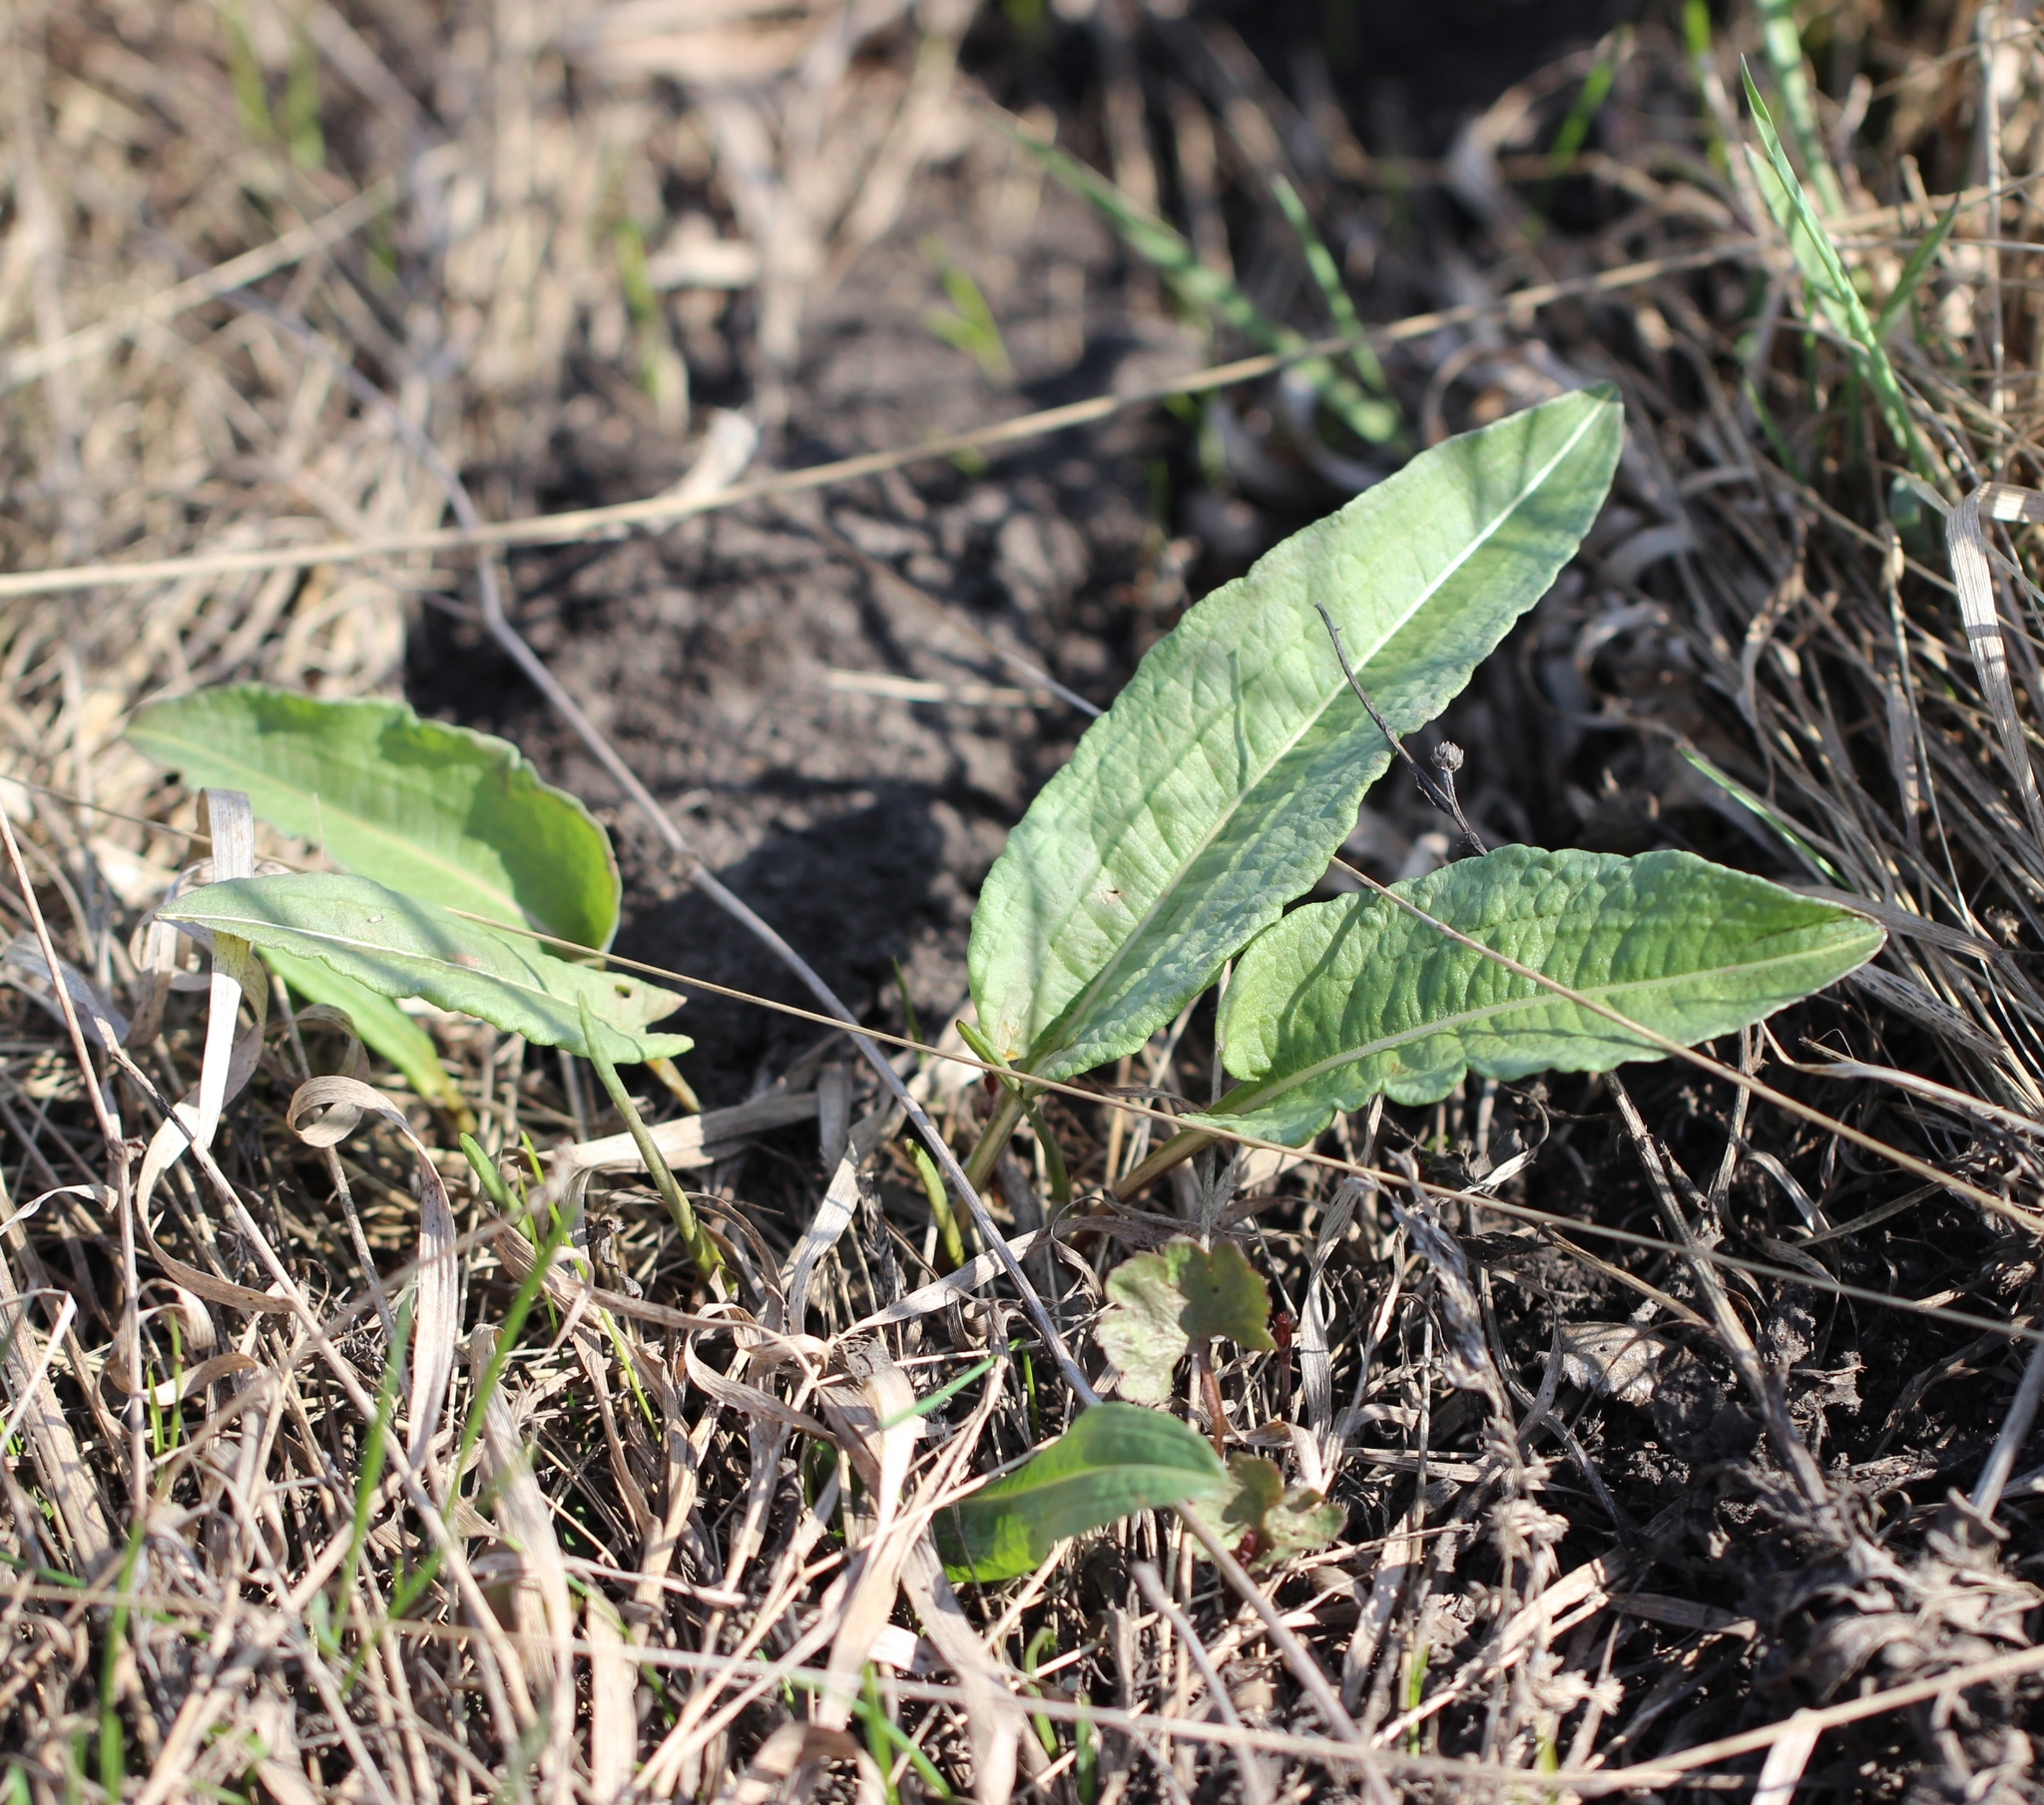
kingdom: Plantae
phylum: Tracheophyta
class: Magnoliopsida
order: Caryophyllales
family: Polygonaceae
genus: Bistorta
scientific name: Bistorta officinalis
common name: Common bistort
